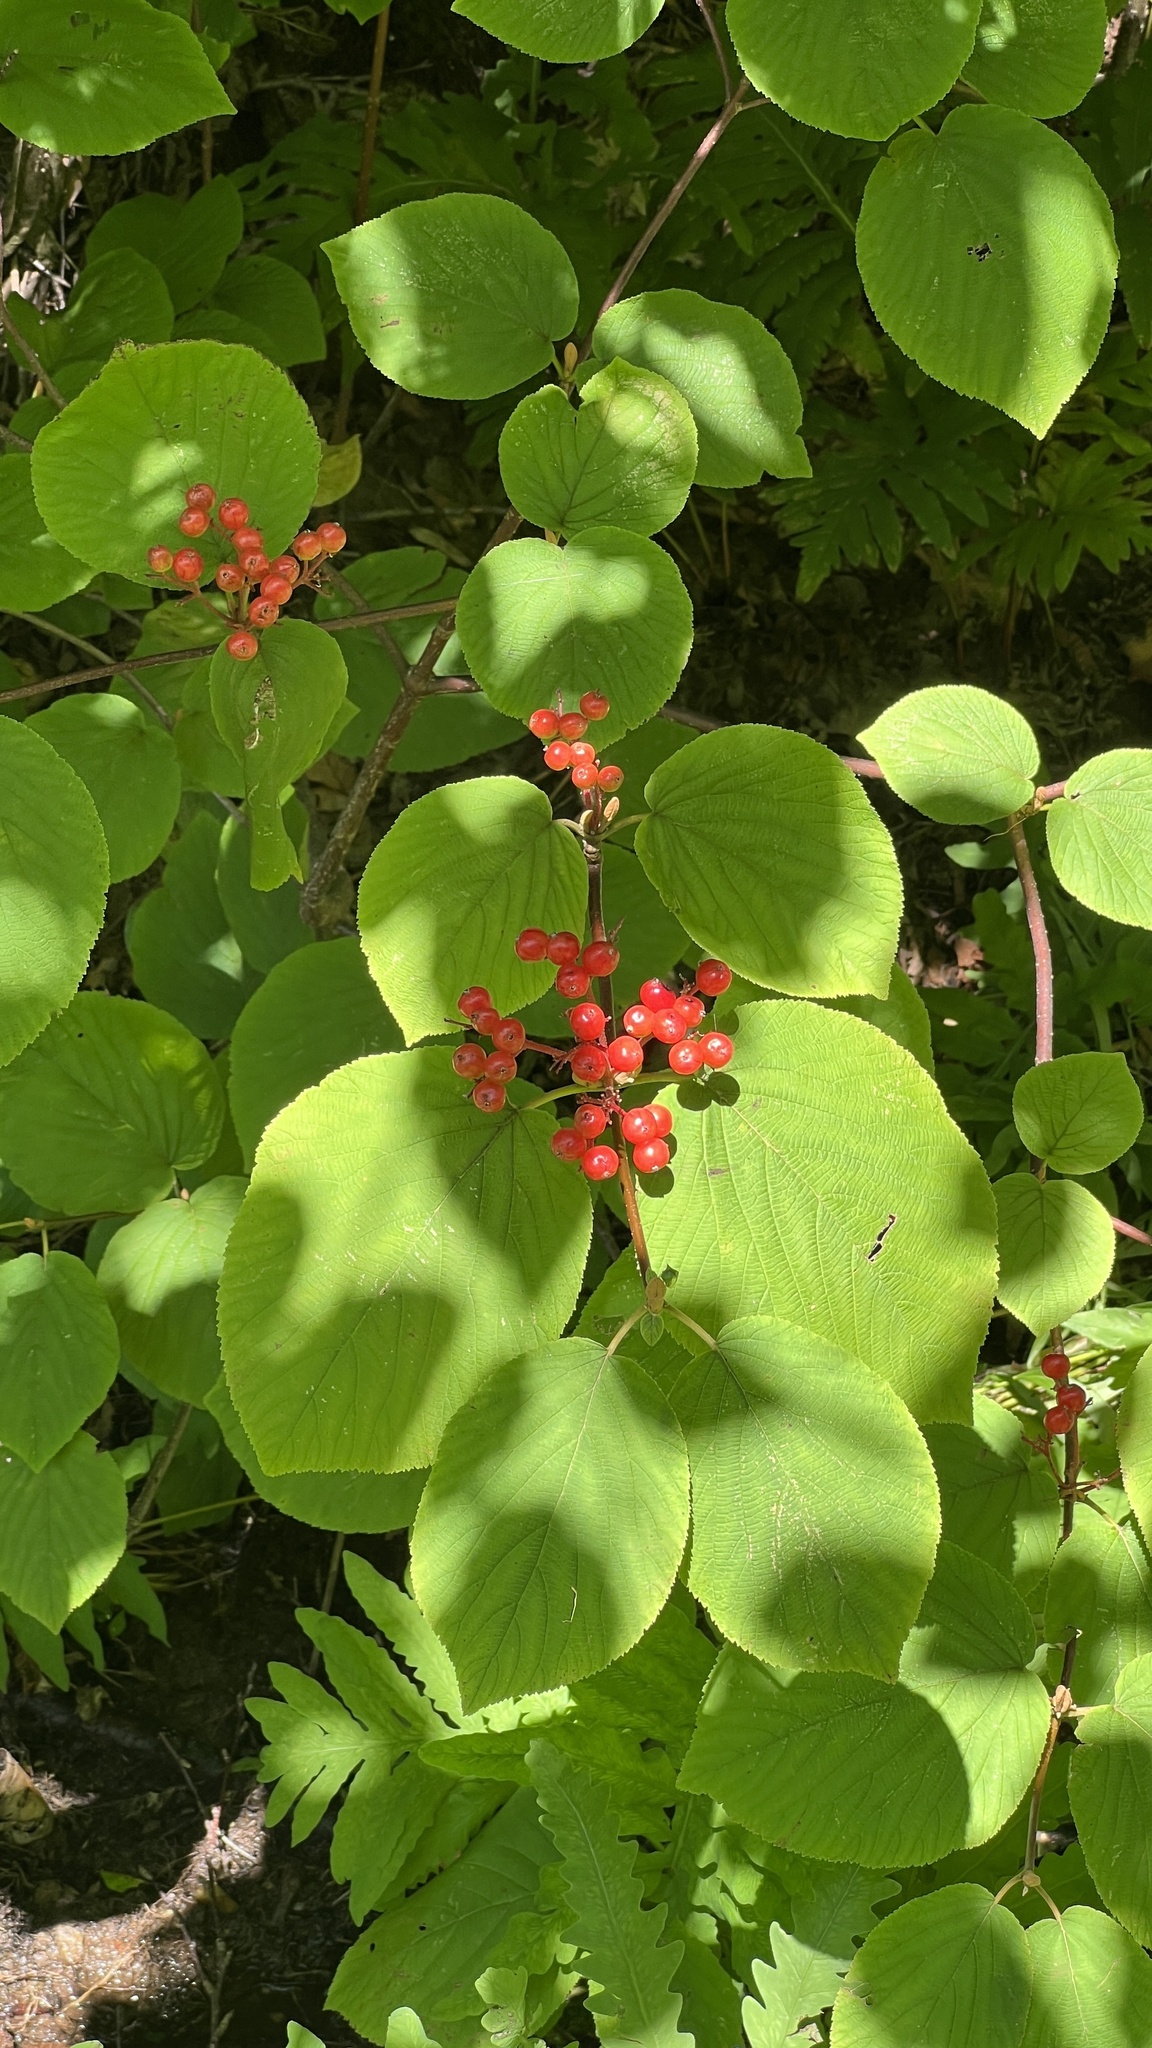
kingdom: Plantae
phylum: Tracheophyta
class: Magnoliopsida
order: Dipsacales
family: Viburnaceae
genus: Viburnum
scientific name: Viburnum lantanoides
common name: Hobblebush
